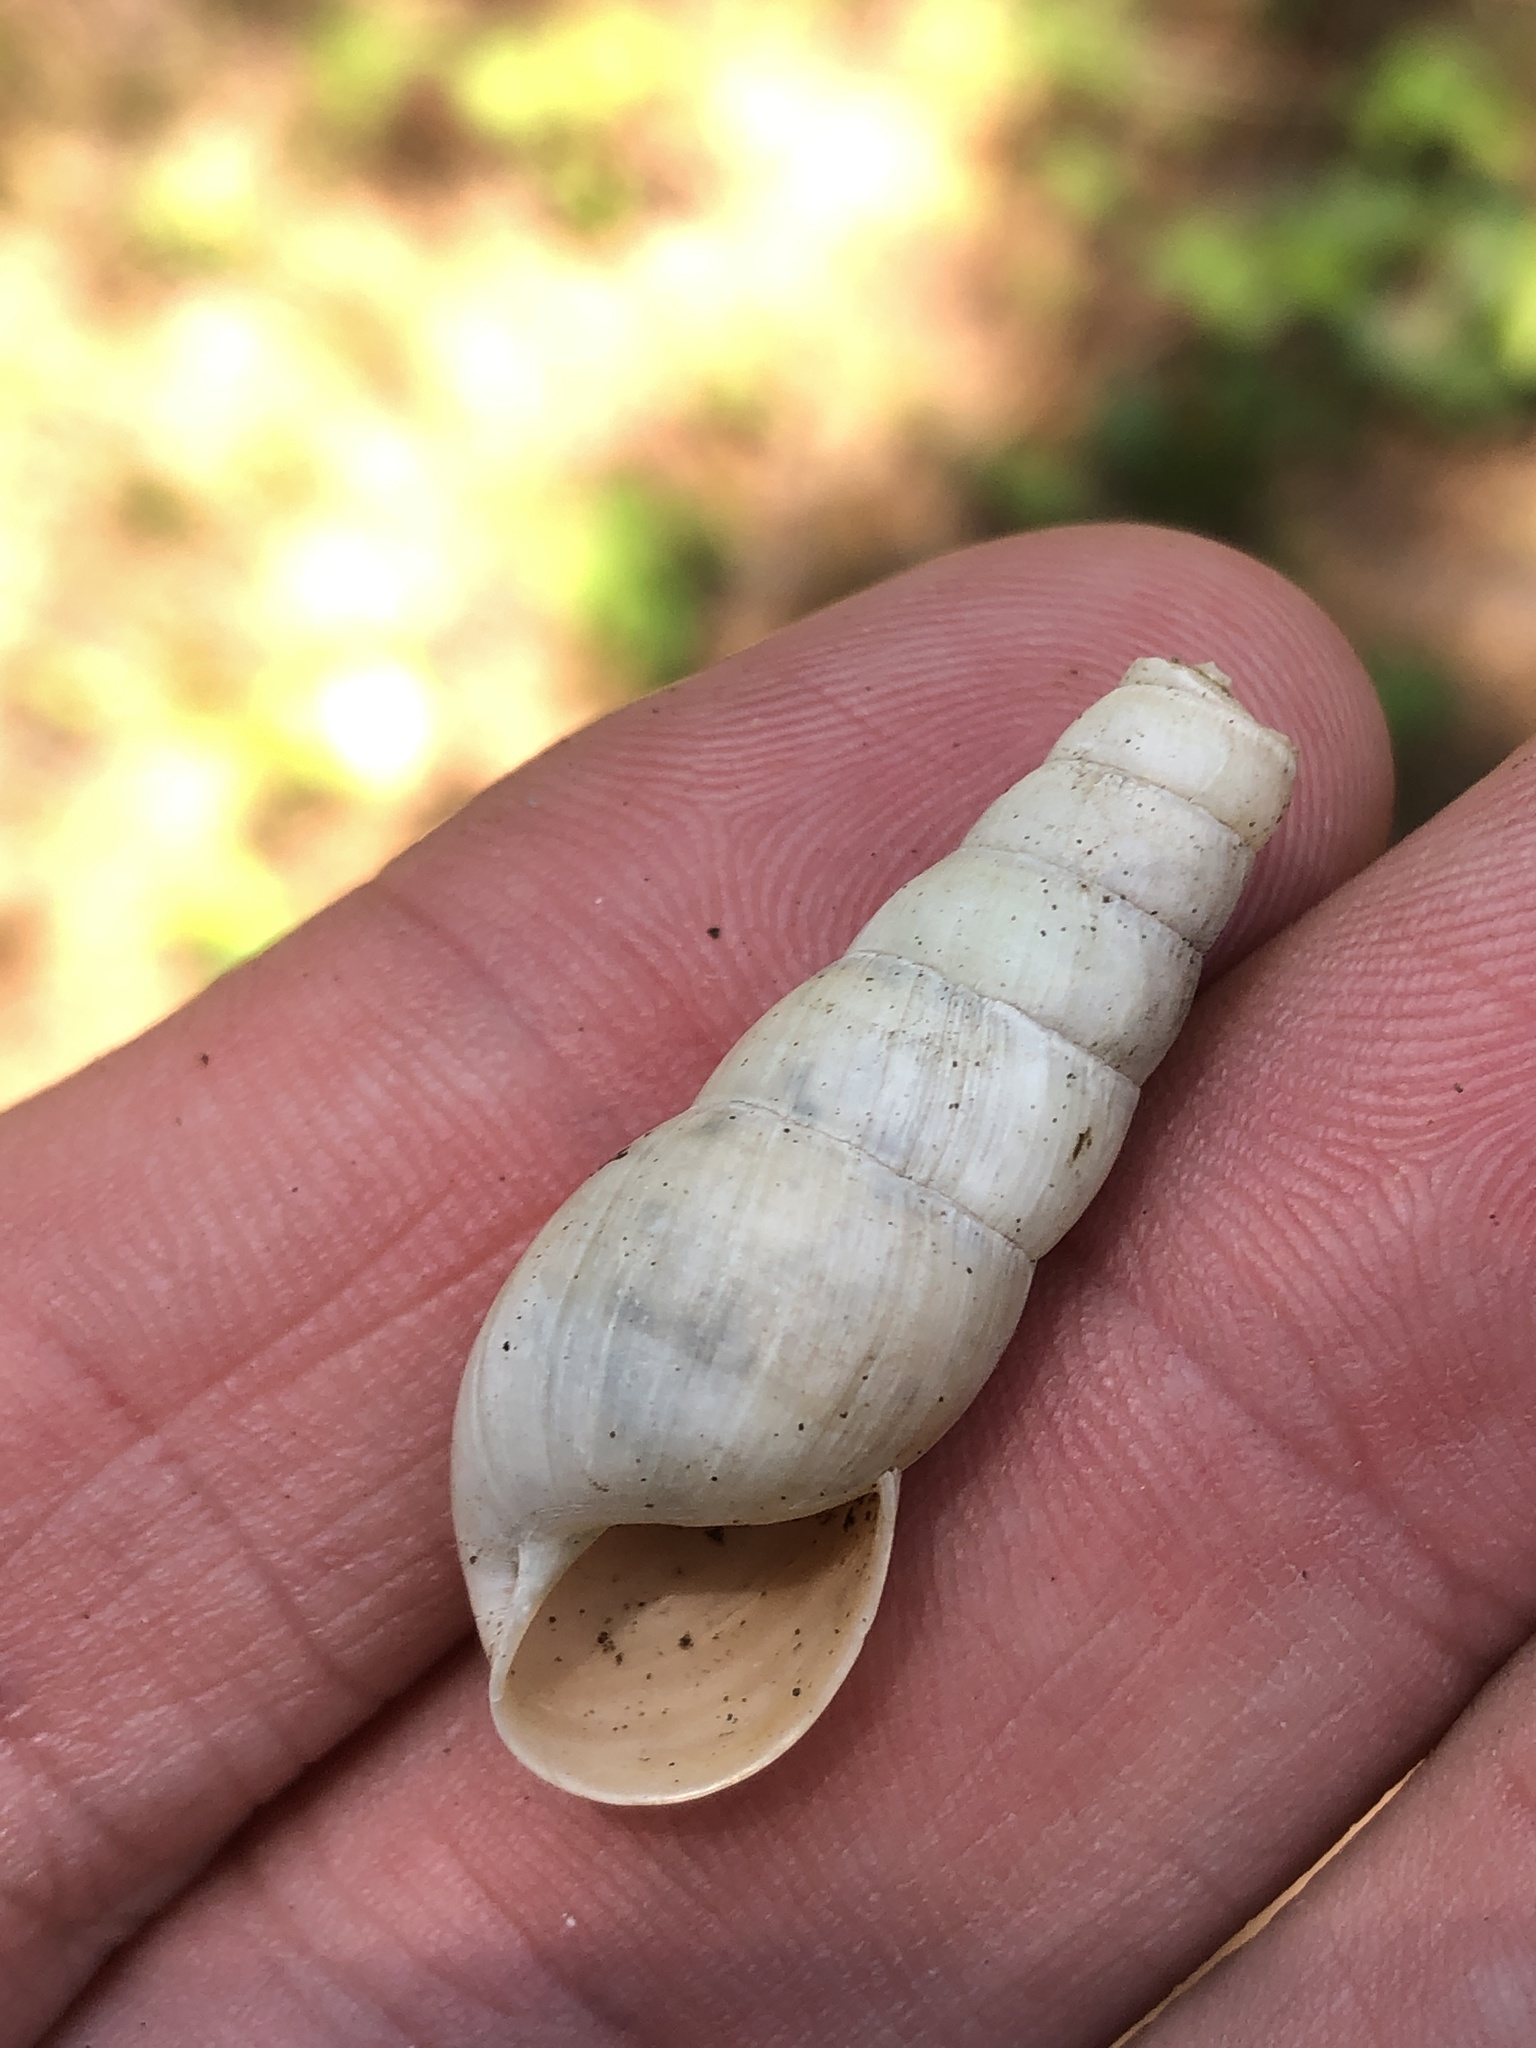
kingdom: Animalia
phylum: Mollusca
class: Gastropoda
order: Stylommatophora
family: Achatinidae
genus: Rumina
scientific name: Rumina decollata
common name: Decollate snail
